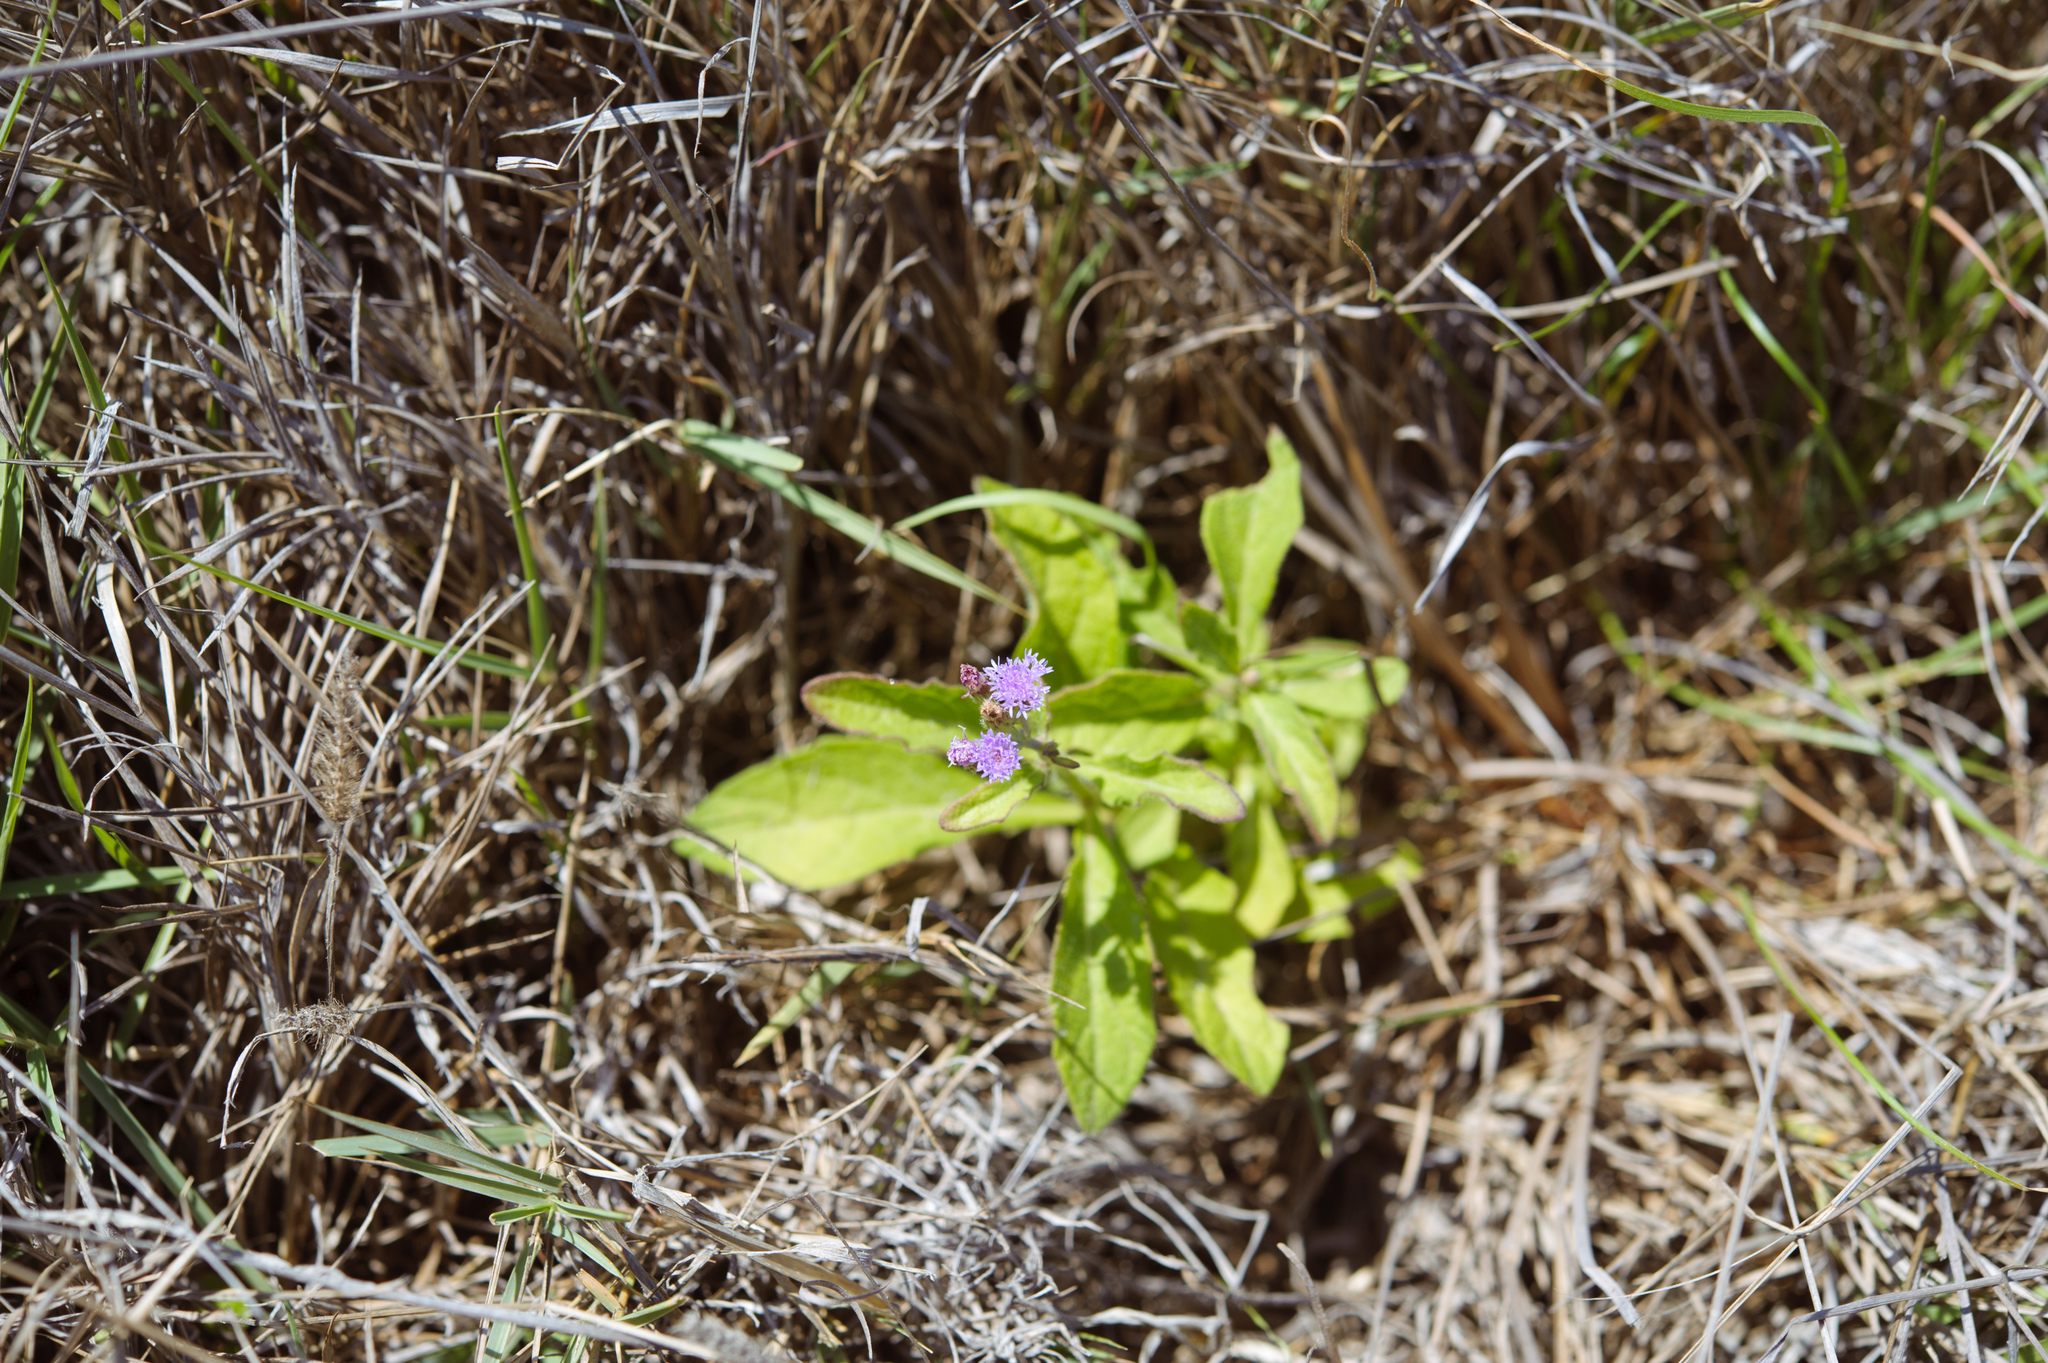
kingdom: Plantae
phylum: Tracheophyta
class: Magnoliopsida
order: Asterales
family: Asteraceae
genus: Cyanthillium
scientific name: Cyanthillium cinereum
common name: Little ironweed
